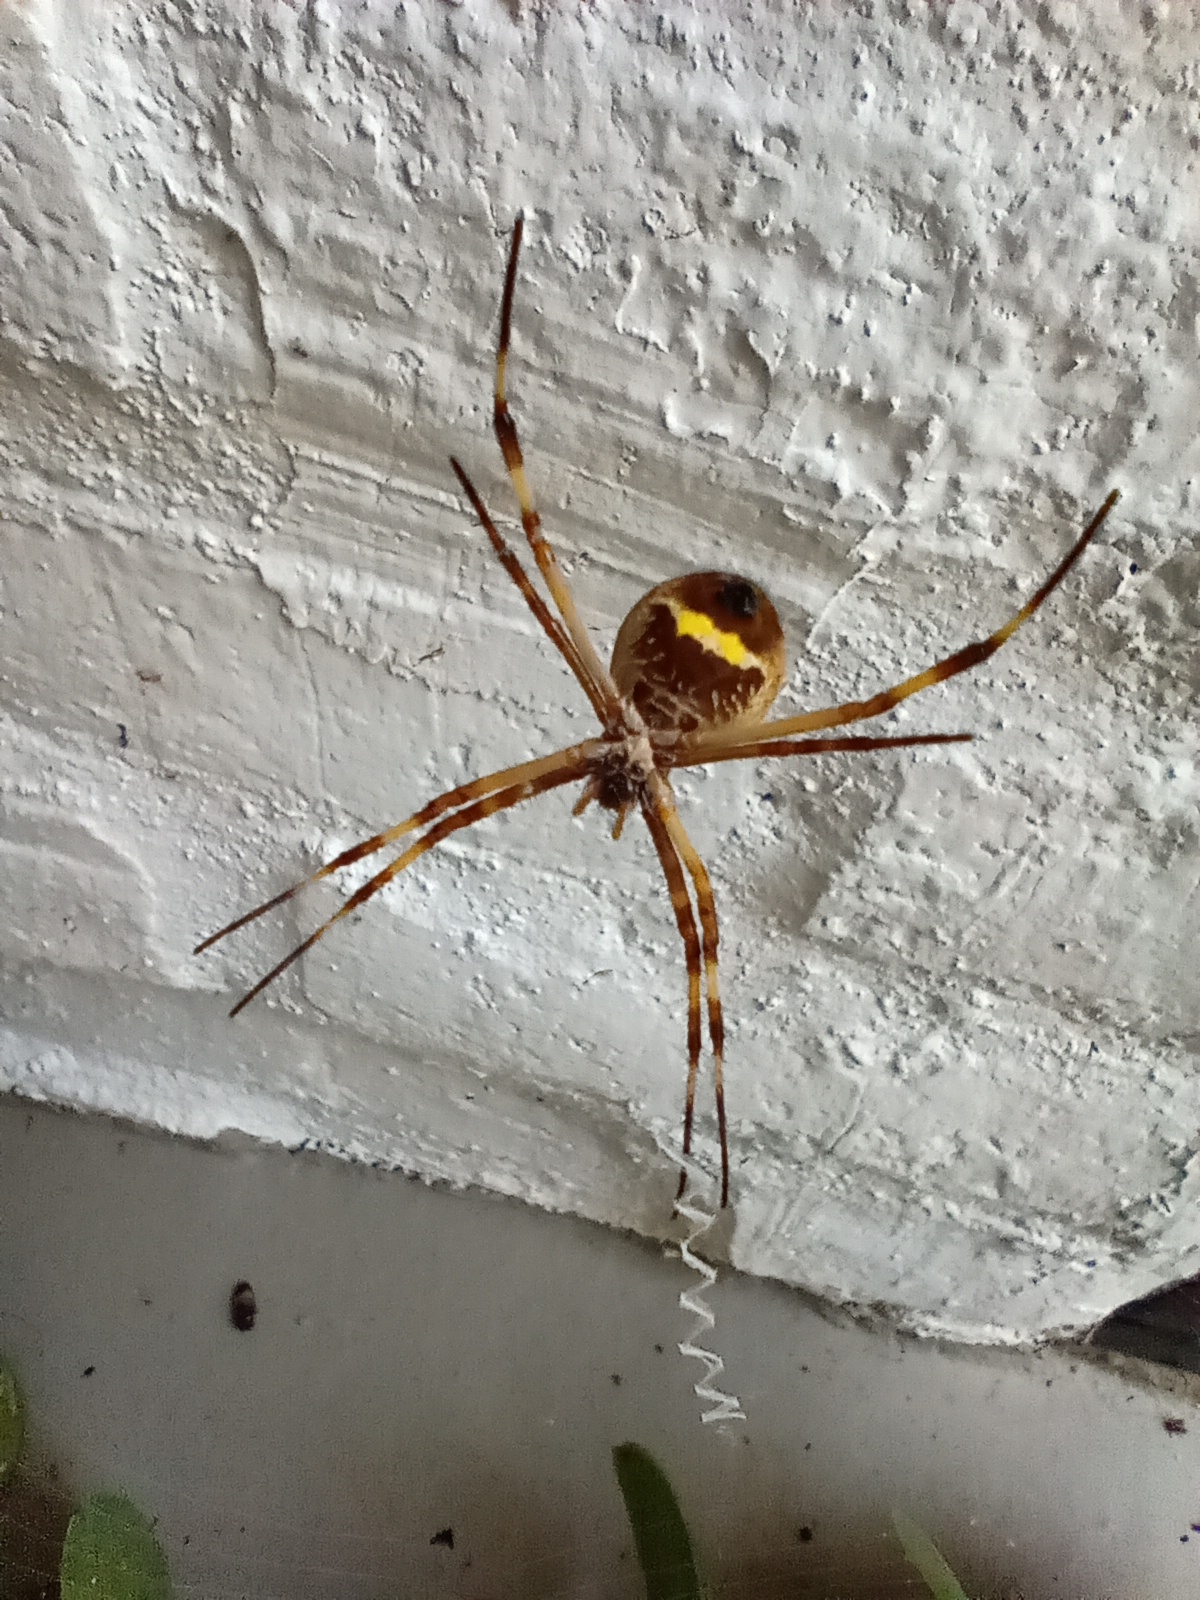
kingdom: Animalia
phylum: Arthropoda
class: Arachnida
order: Araneae
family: Araneidae
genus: Argiope
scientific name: Argiope argentata
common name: Orb weavers
